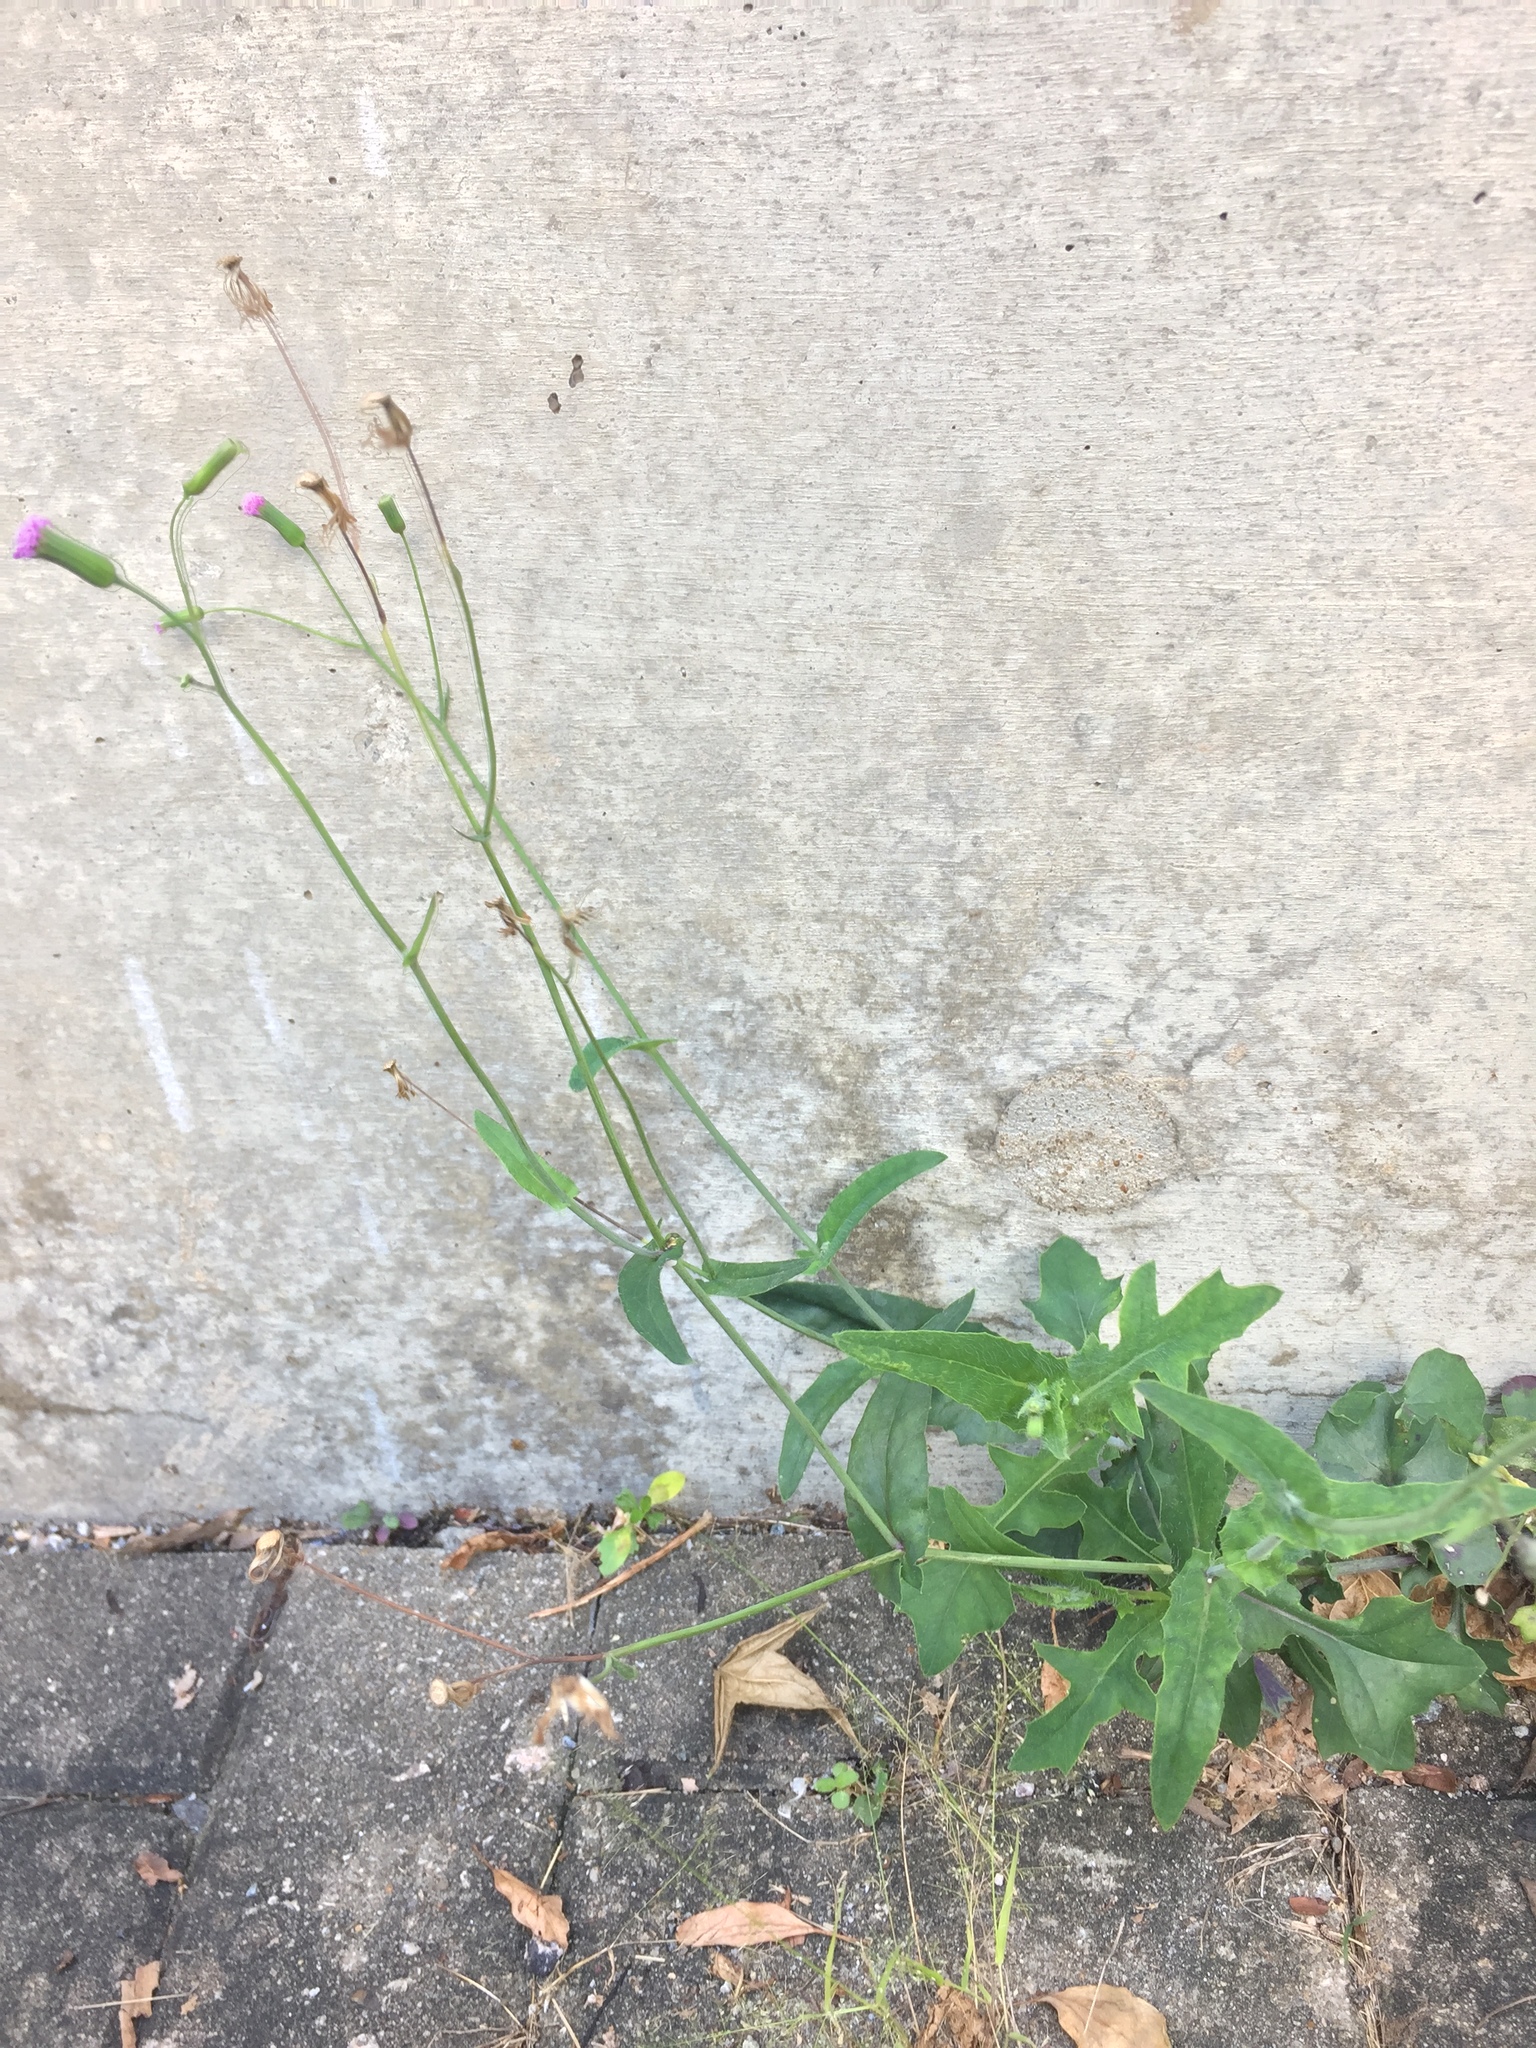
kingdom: Plantae
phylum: Tracheophyta
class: Magnoliopsida
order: Asterales
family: Asteraceae
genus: Emilia
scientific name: Emilia sonchifolia
